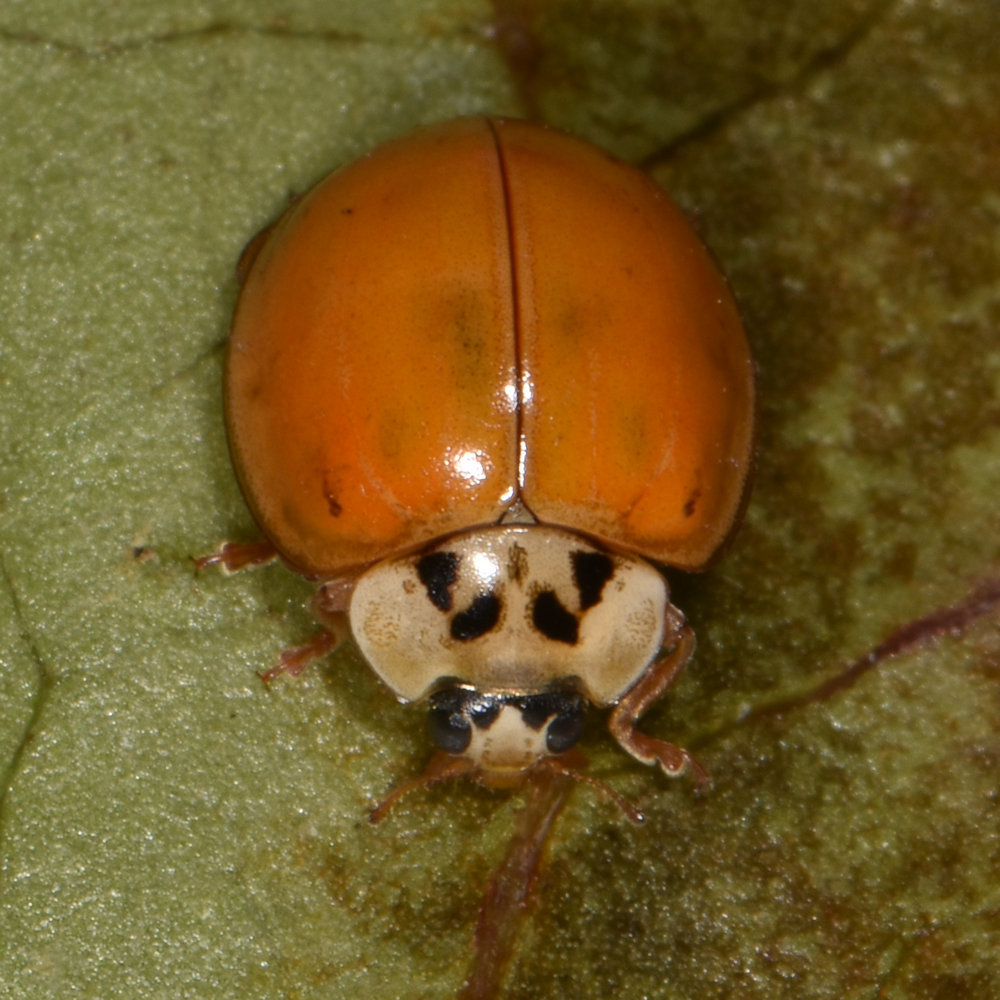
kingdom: Animalia
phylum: Arthropoda
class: Insecta
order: Coleoptera
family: Coccinellidae
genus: Harmonia
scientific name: Harmonia axyridis
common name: Harlequin ladybird
